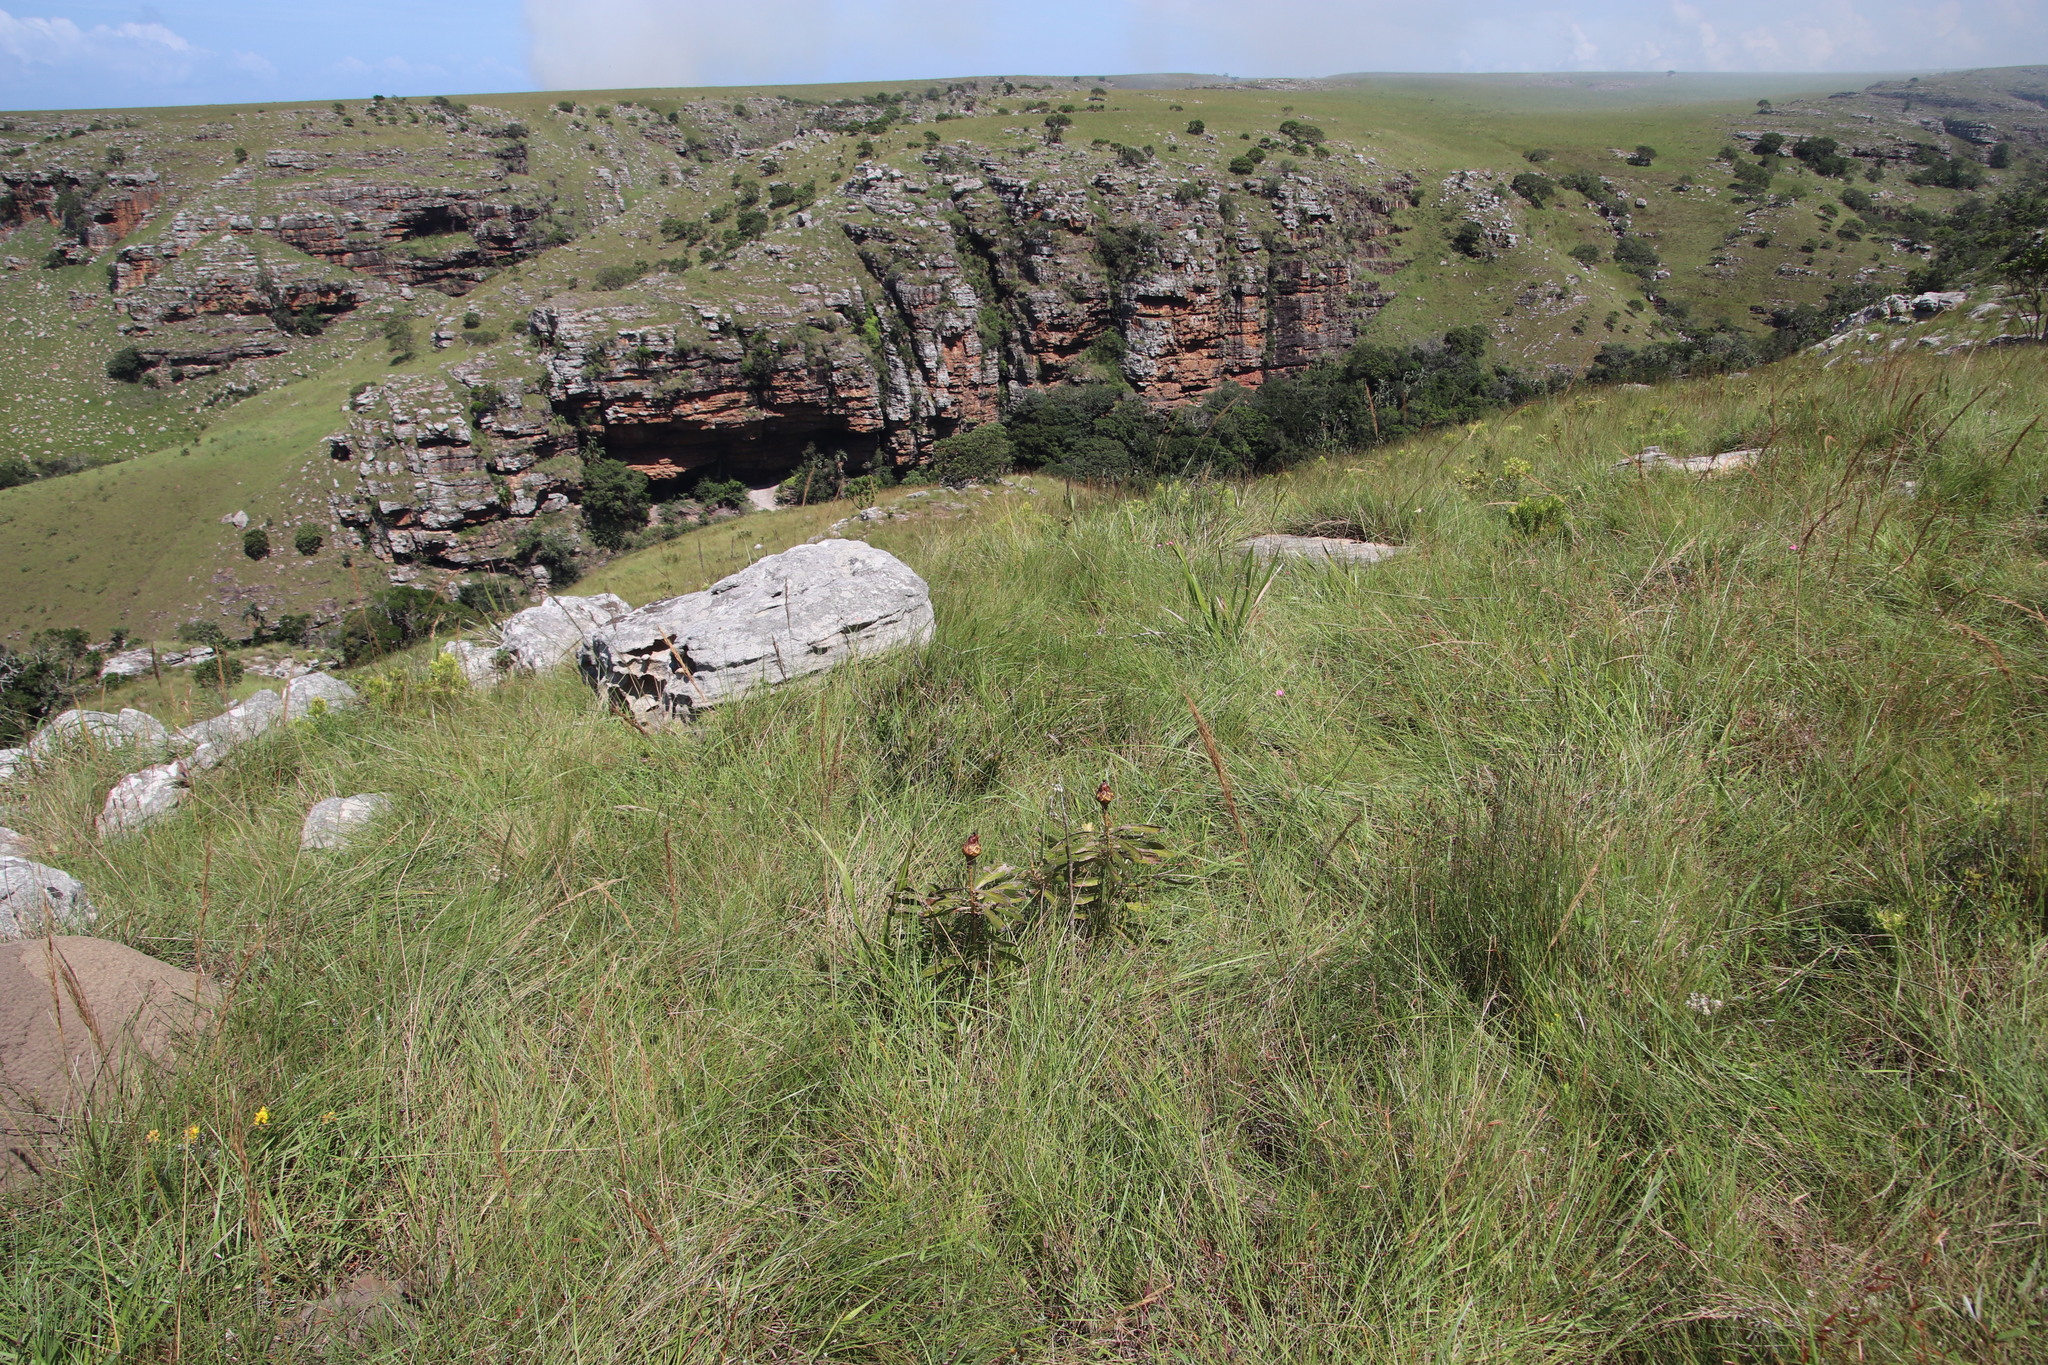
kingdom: Plantae
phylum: Tracheophyta
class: Magnoliopsida
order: Proteales
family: Proteaceae
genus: Protea
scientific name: Protea simplex
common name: Dwarf grassveld sugarbush
